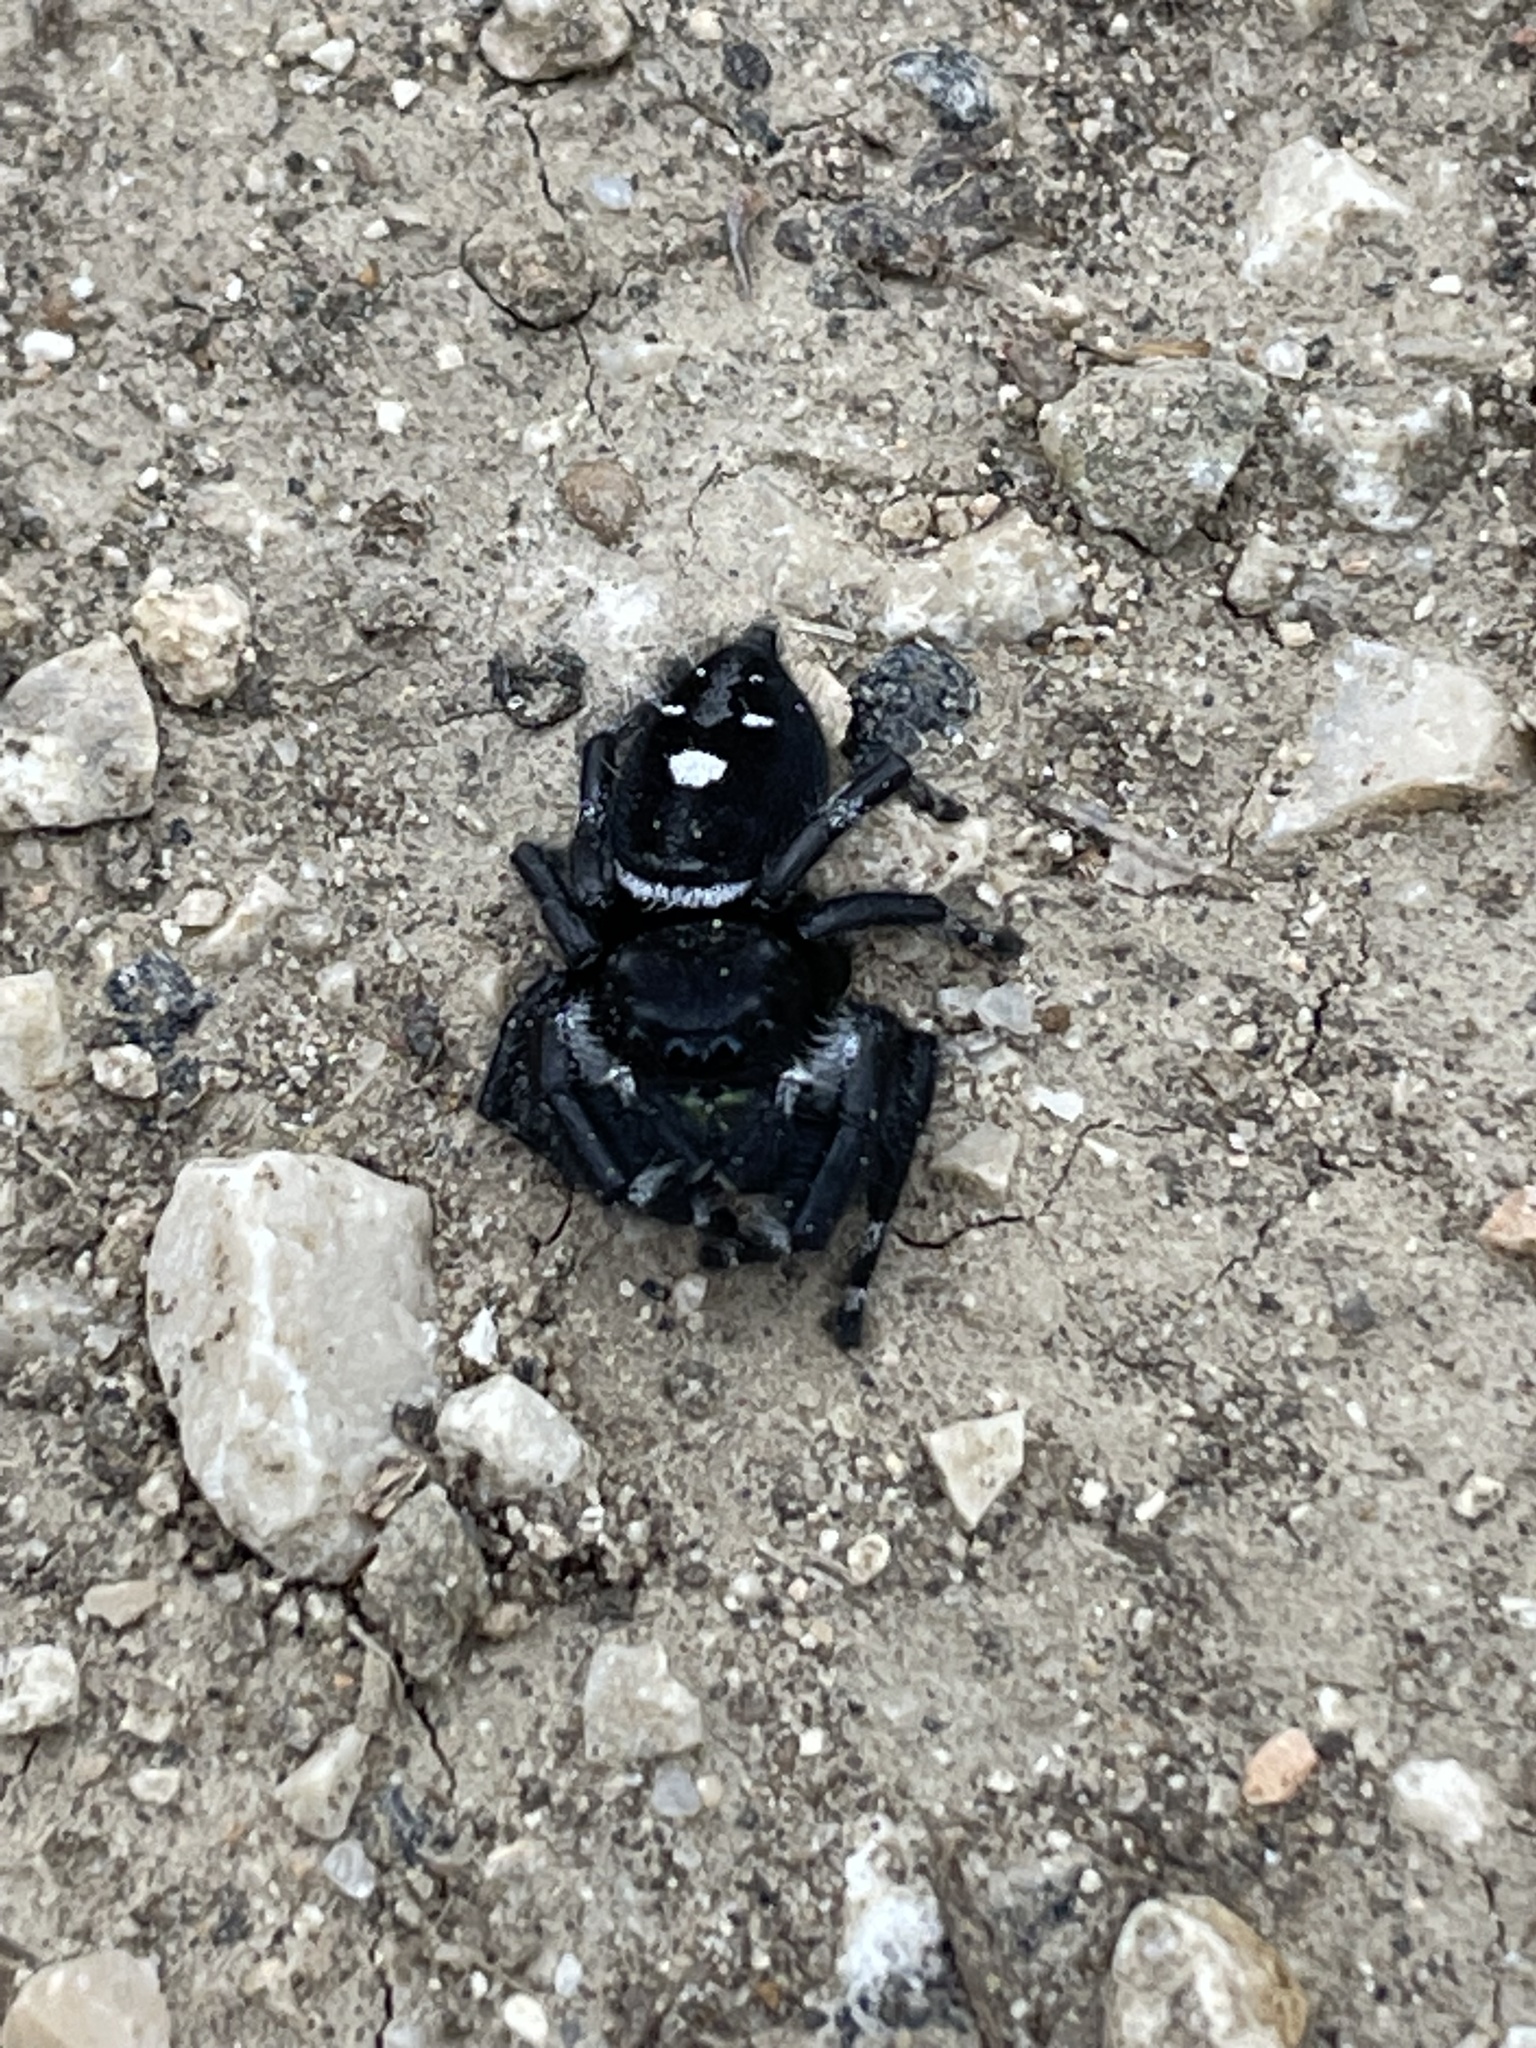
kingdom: Animalia
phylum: Arthropoda
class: Arachnida
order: Araneae
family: Salticidae
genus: Phidippus
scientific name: Phidippus audax
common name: Bold jumper
